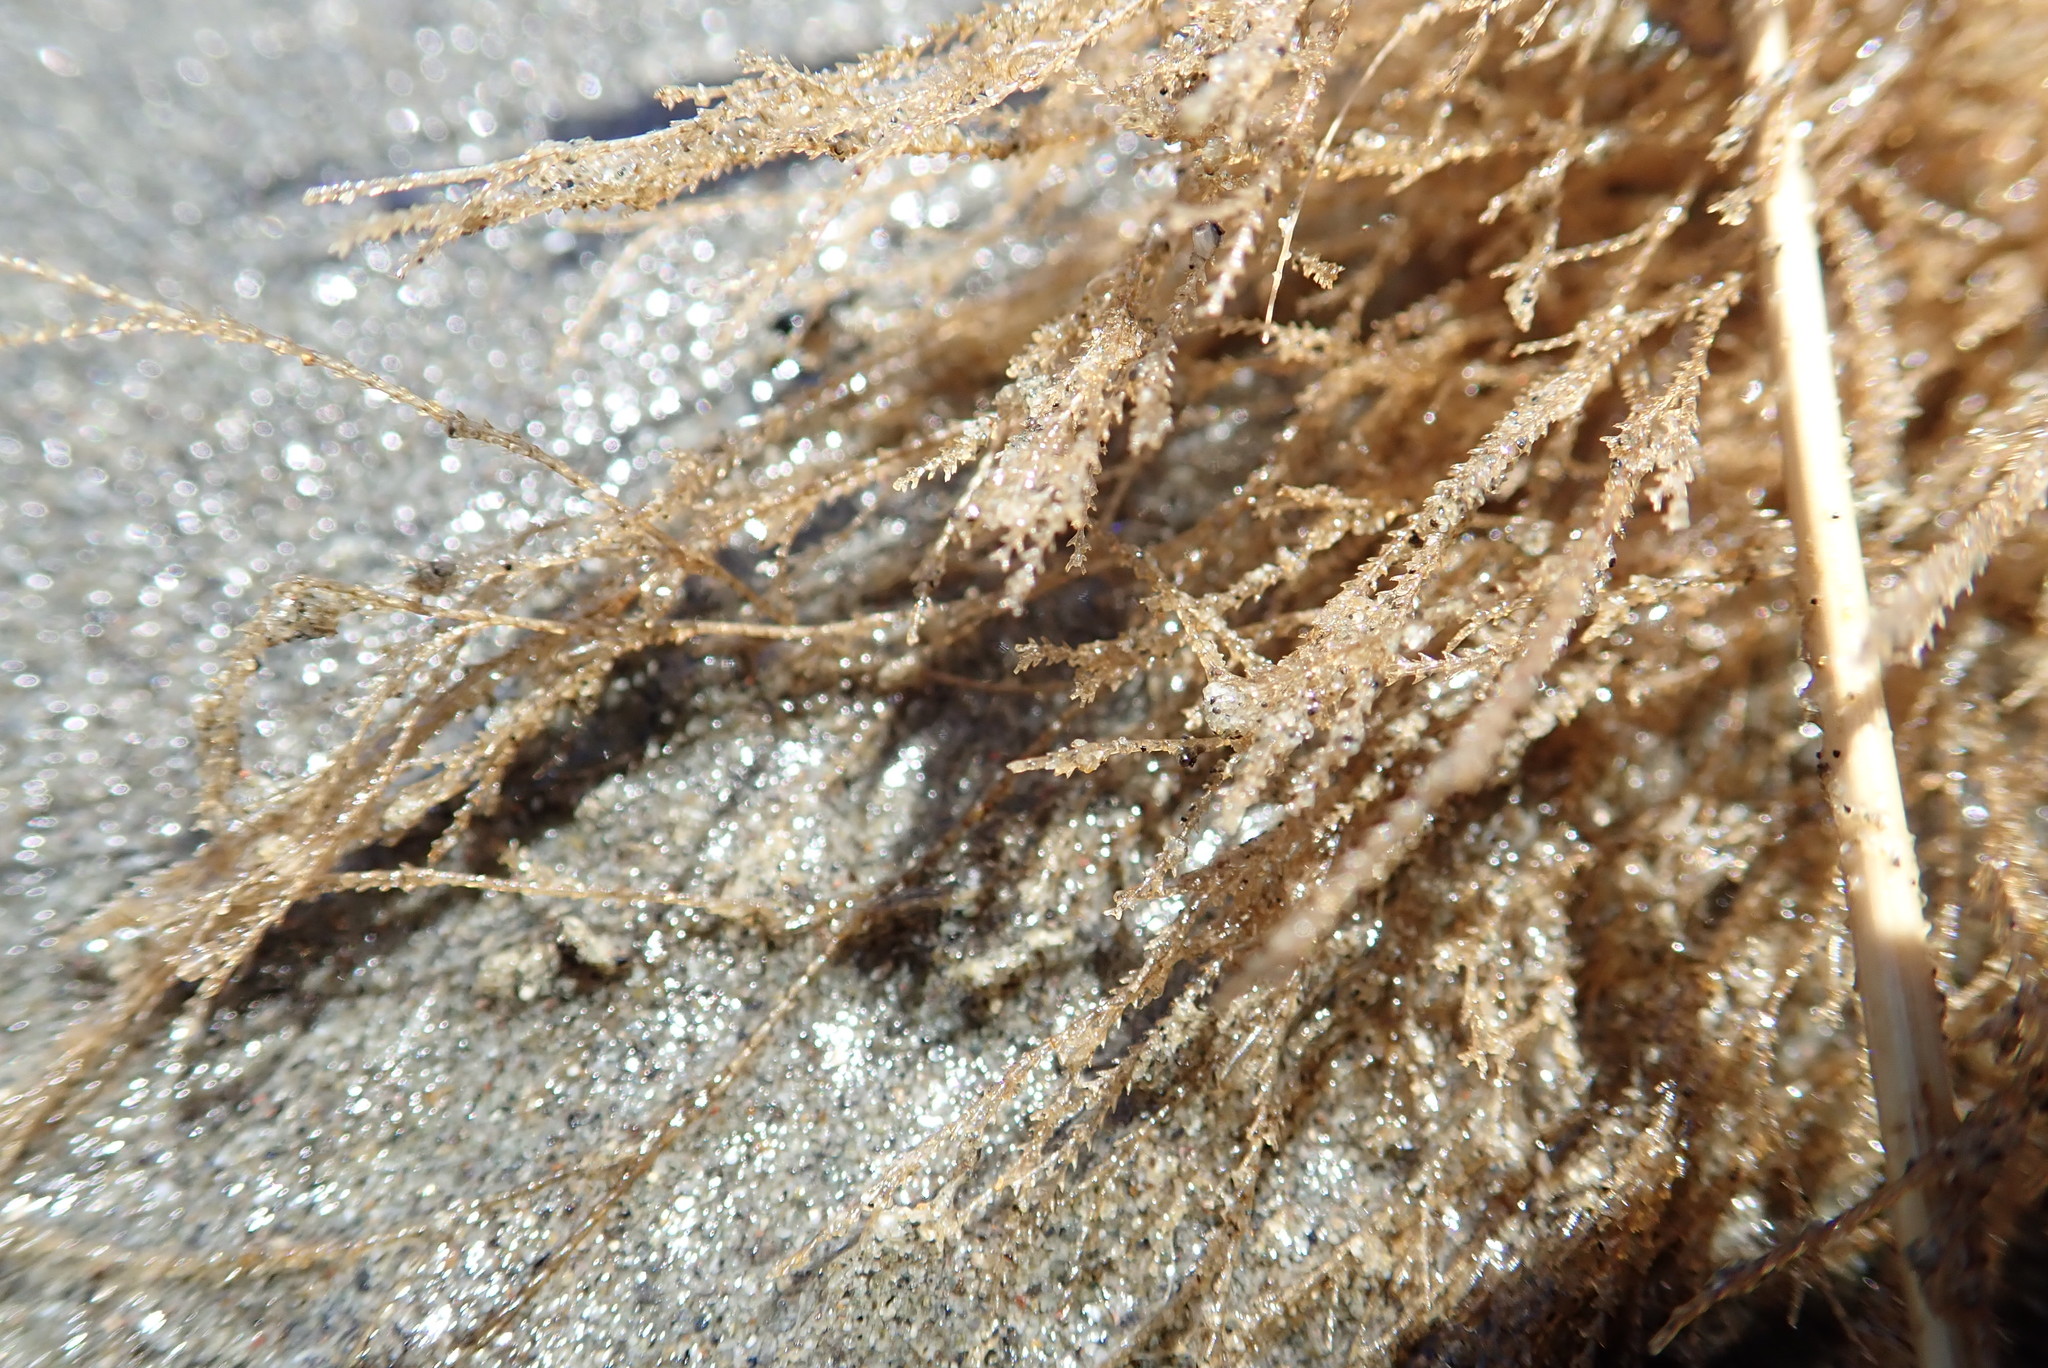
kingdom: Animalia
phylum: Cnidaria
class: Hydrozoa
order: Leptothecata
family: Sertulariidae
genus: Amphisbetia
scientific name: Amphisbetia bispinosa
